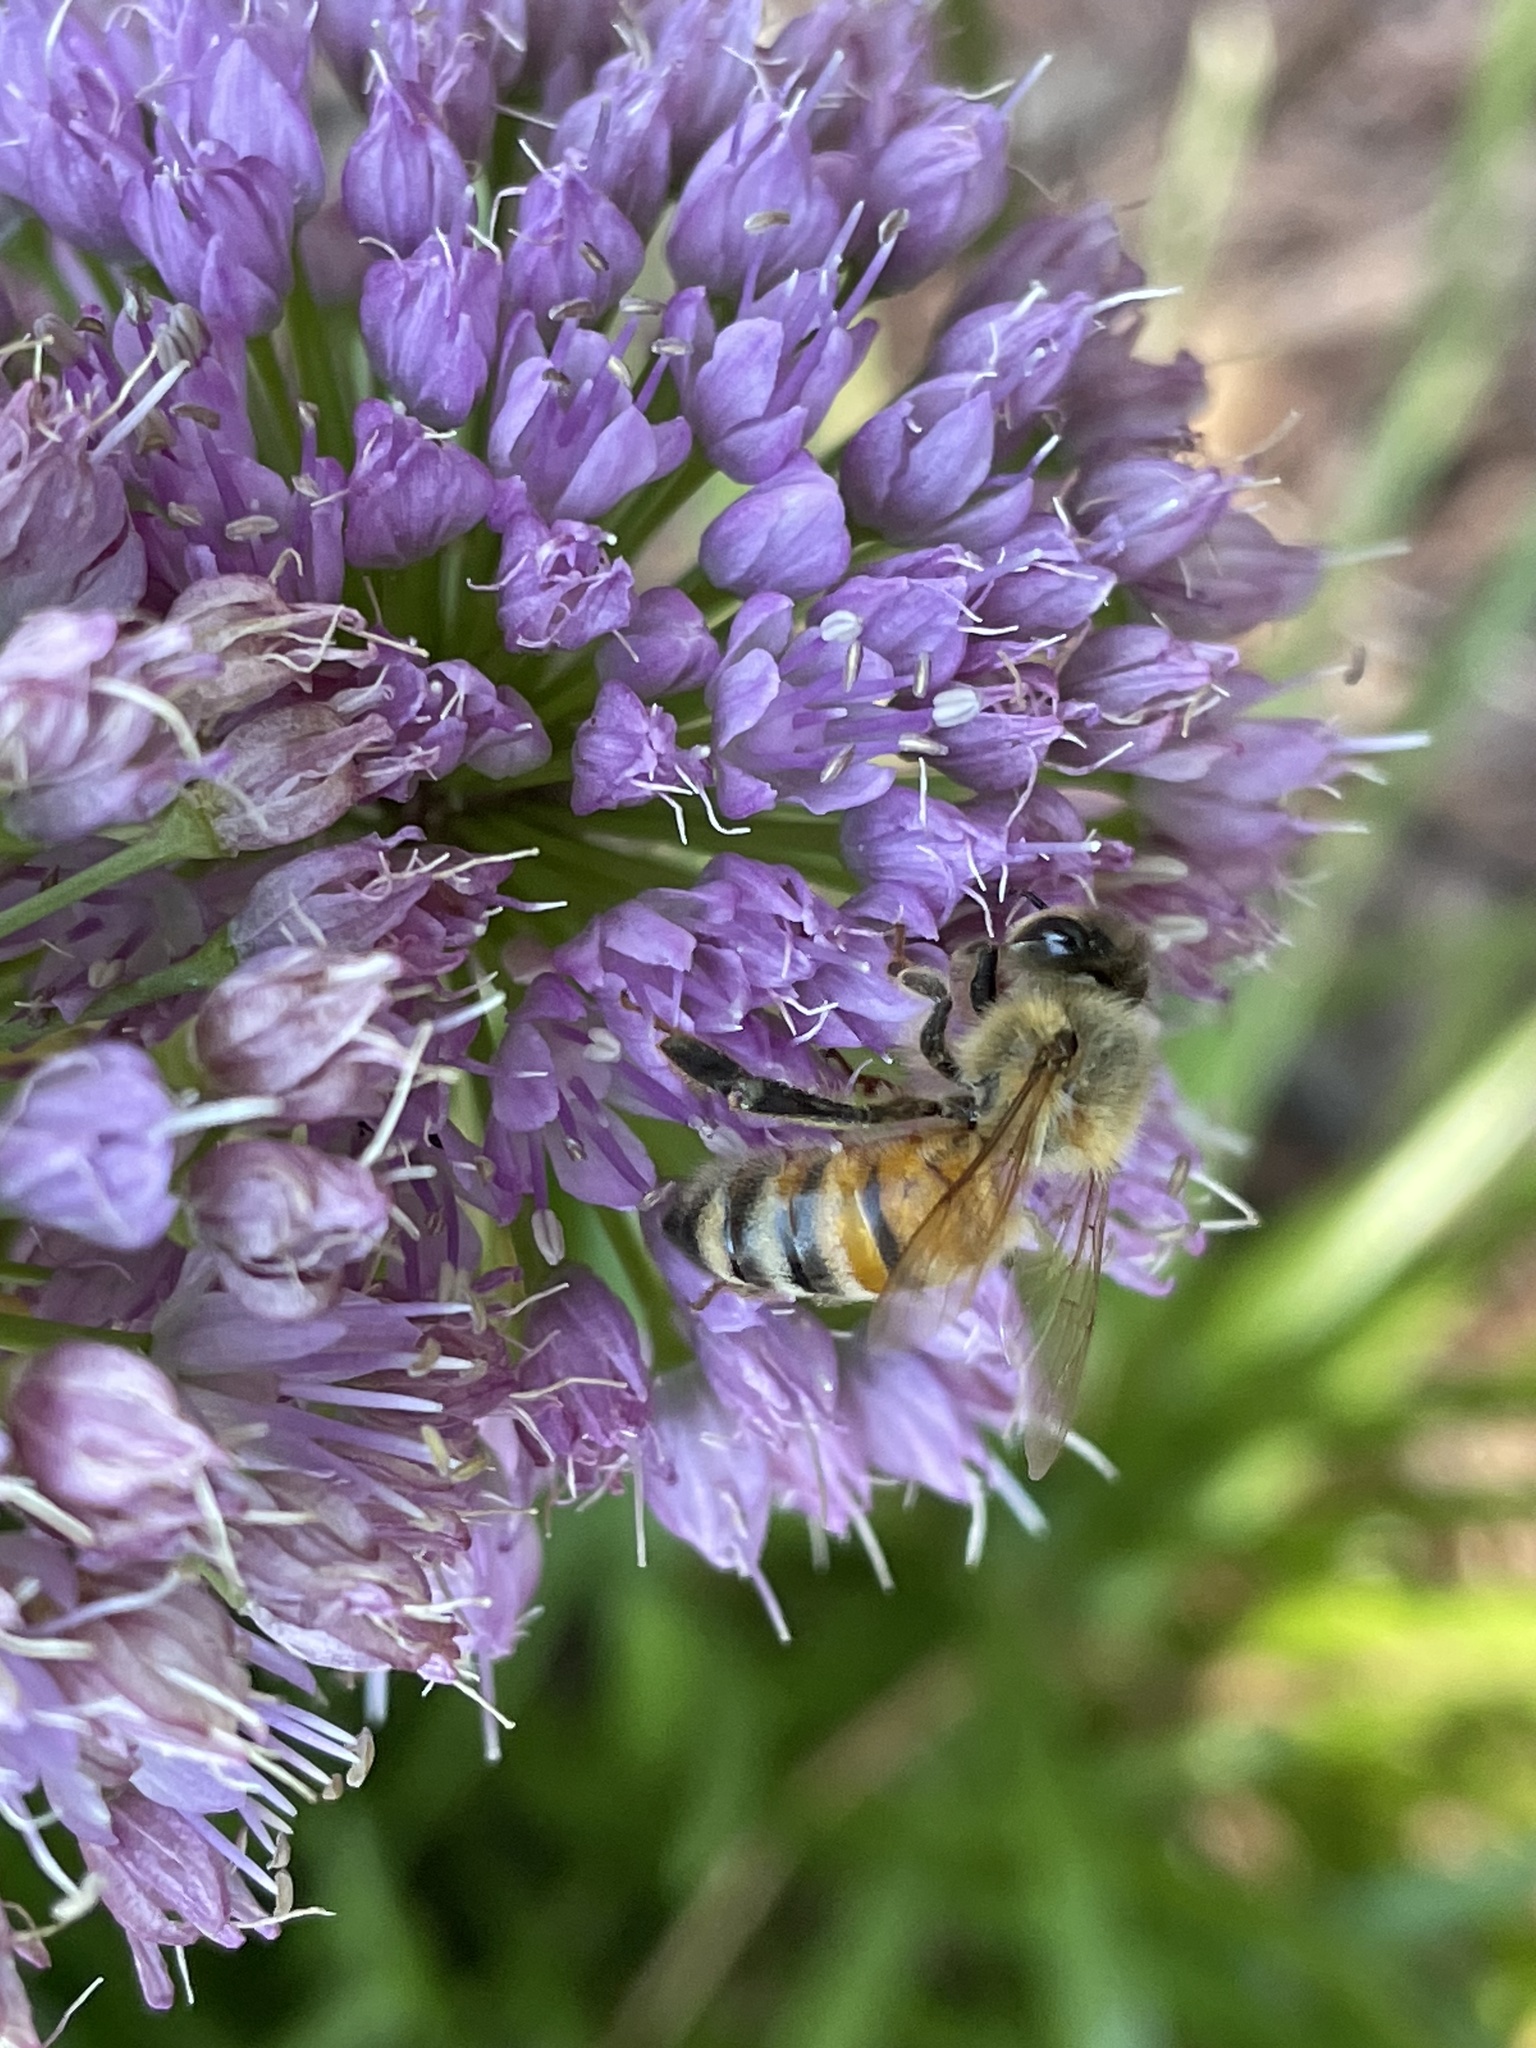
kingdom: Animalia
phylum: Arthropoda
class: Insecta
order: Hymenoptera
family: Apidae
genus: Apis
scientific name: Apis mellifera
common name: Honey bee
